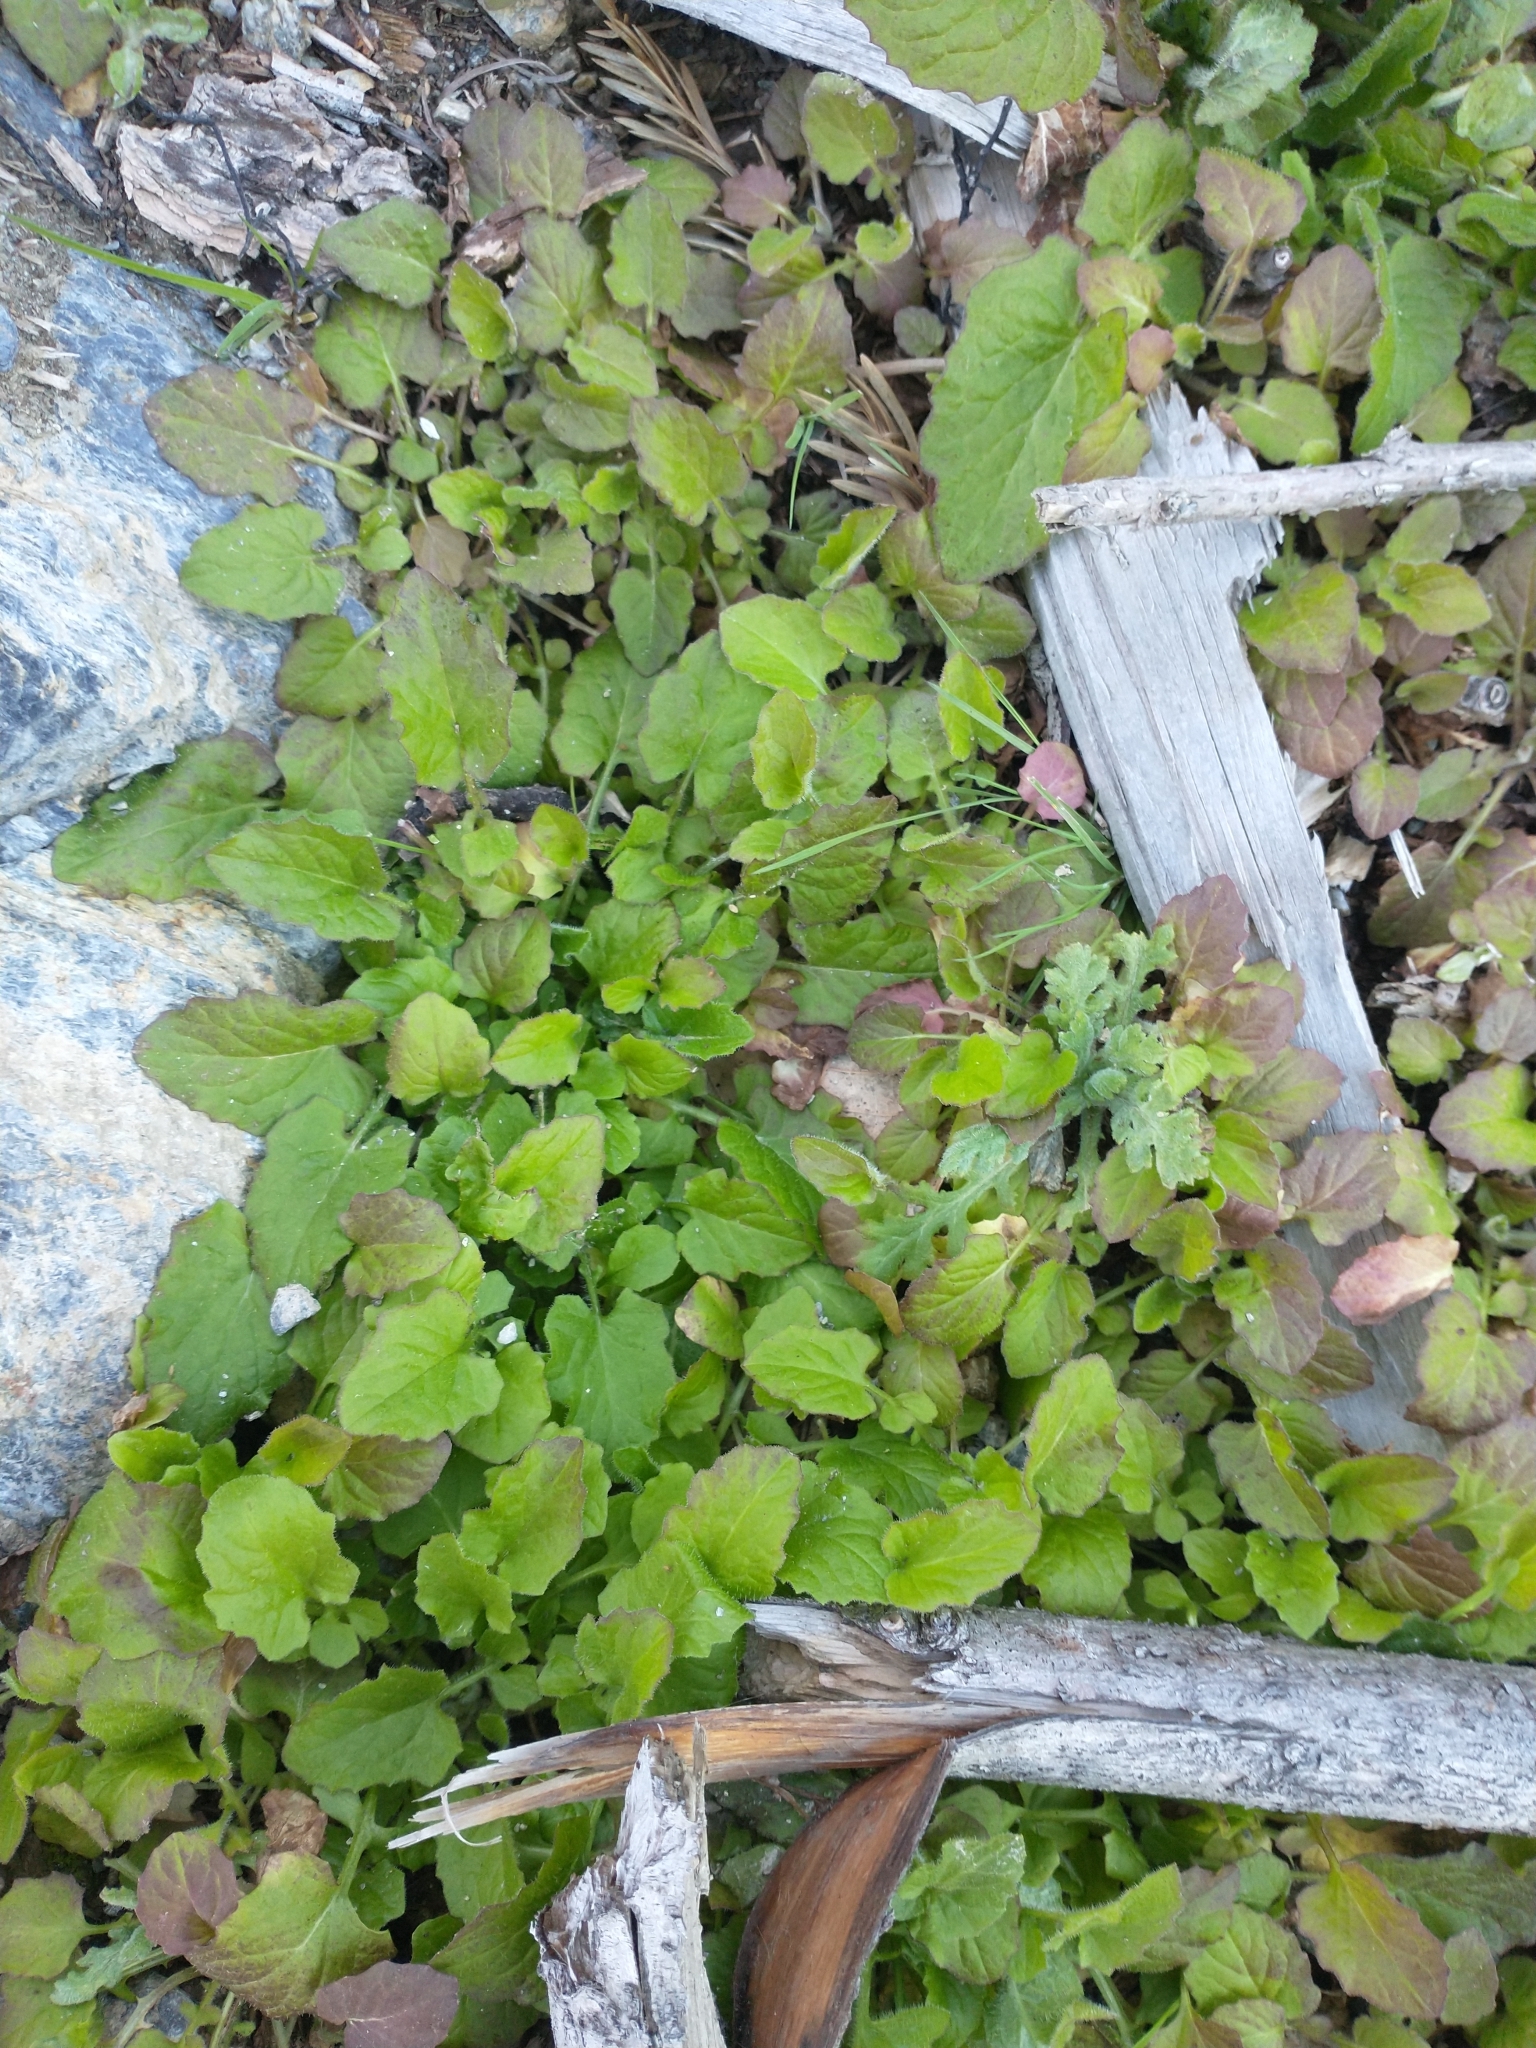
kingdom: Plantae
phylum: Tracheophyta
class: Magnoliopsida
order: Asterales
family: Asteraceae
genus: Lapsana
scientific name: Lapsana communis
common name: Nipplewort
